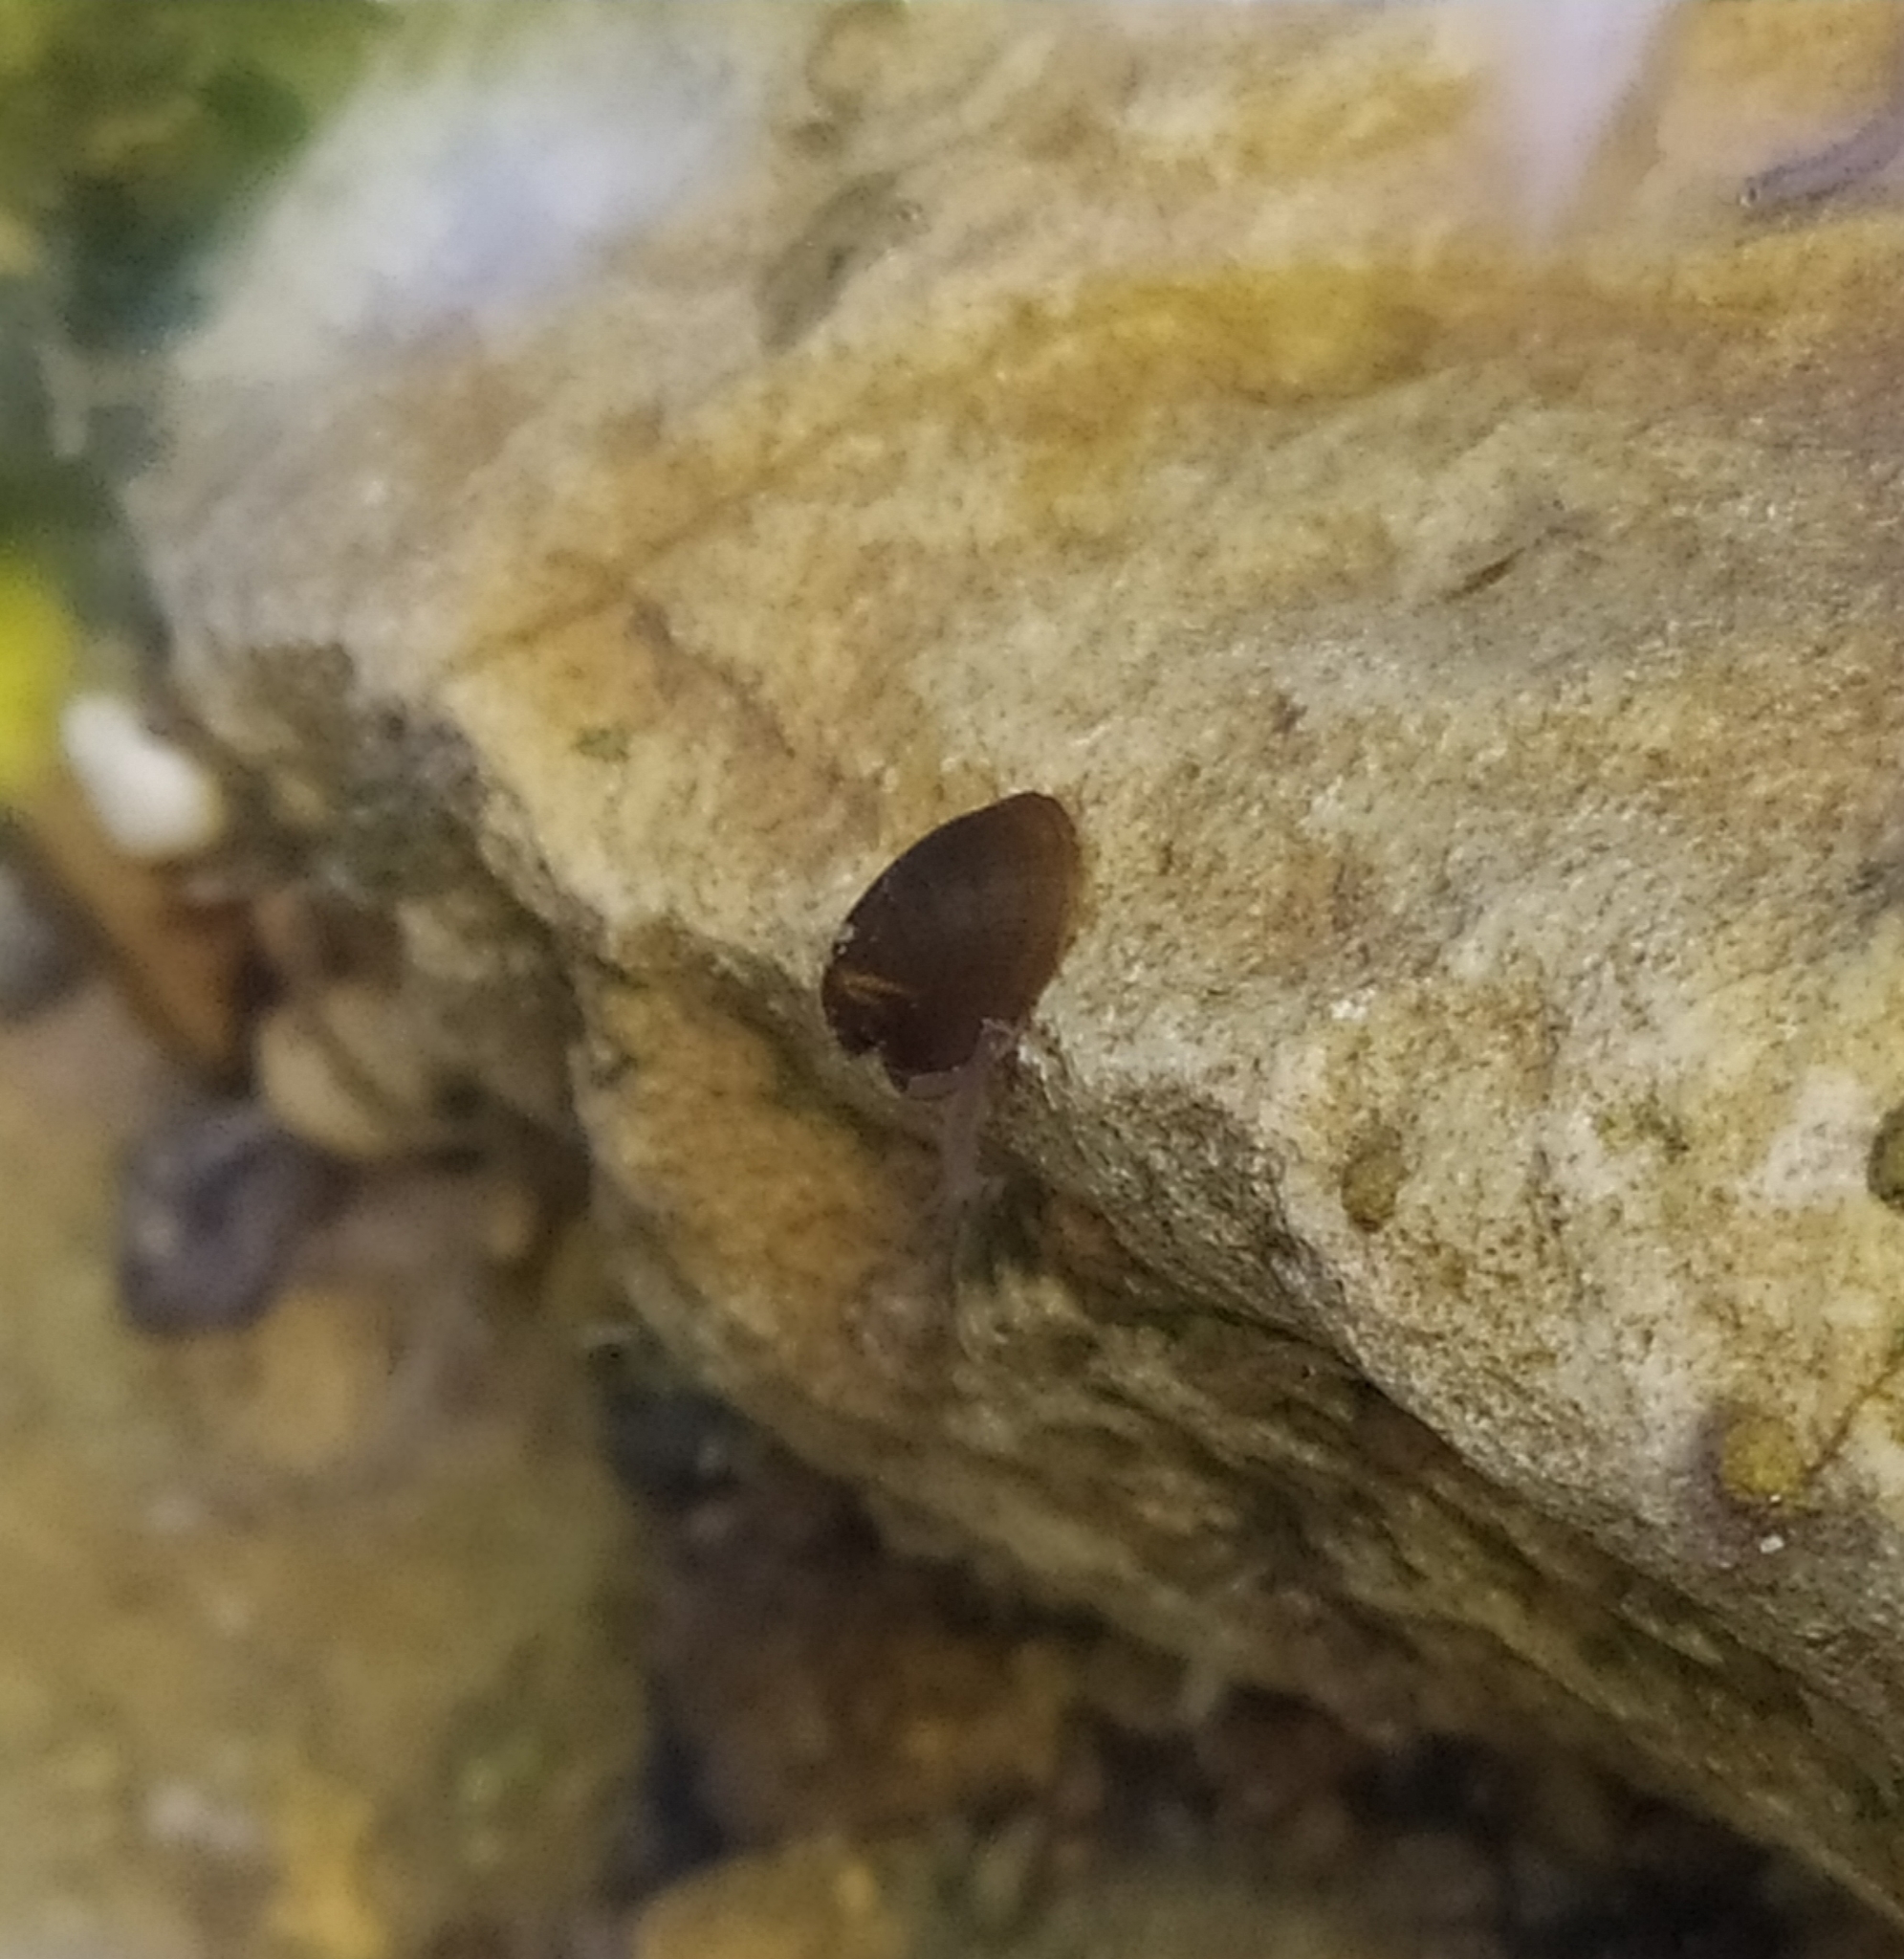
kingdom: Animalia
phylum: Mollusca
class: Gastropoda
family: Planorbidae
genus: Ancylus
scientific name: Ancylus fluviatilis
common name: River limpet
